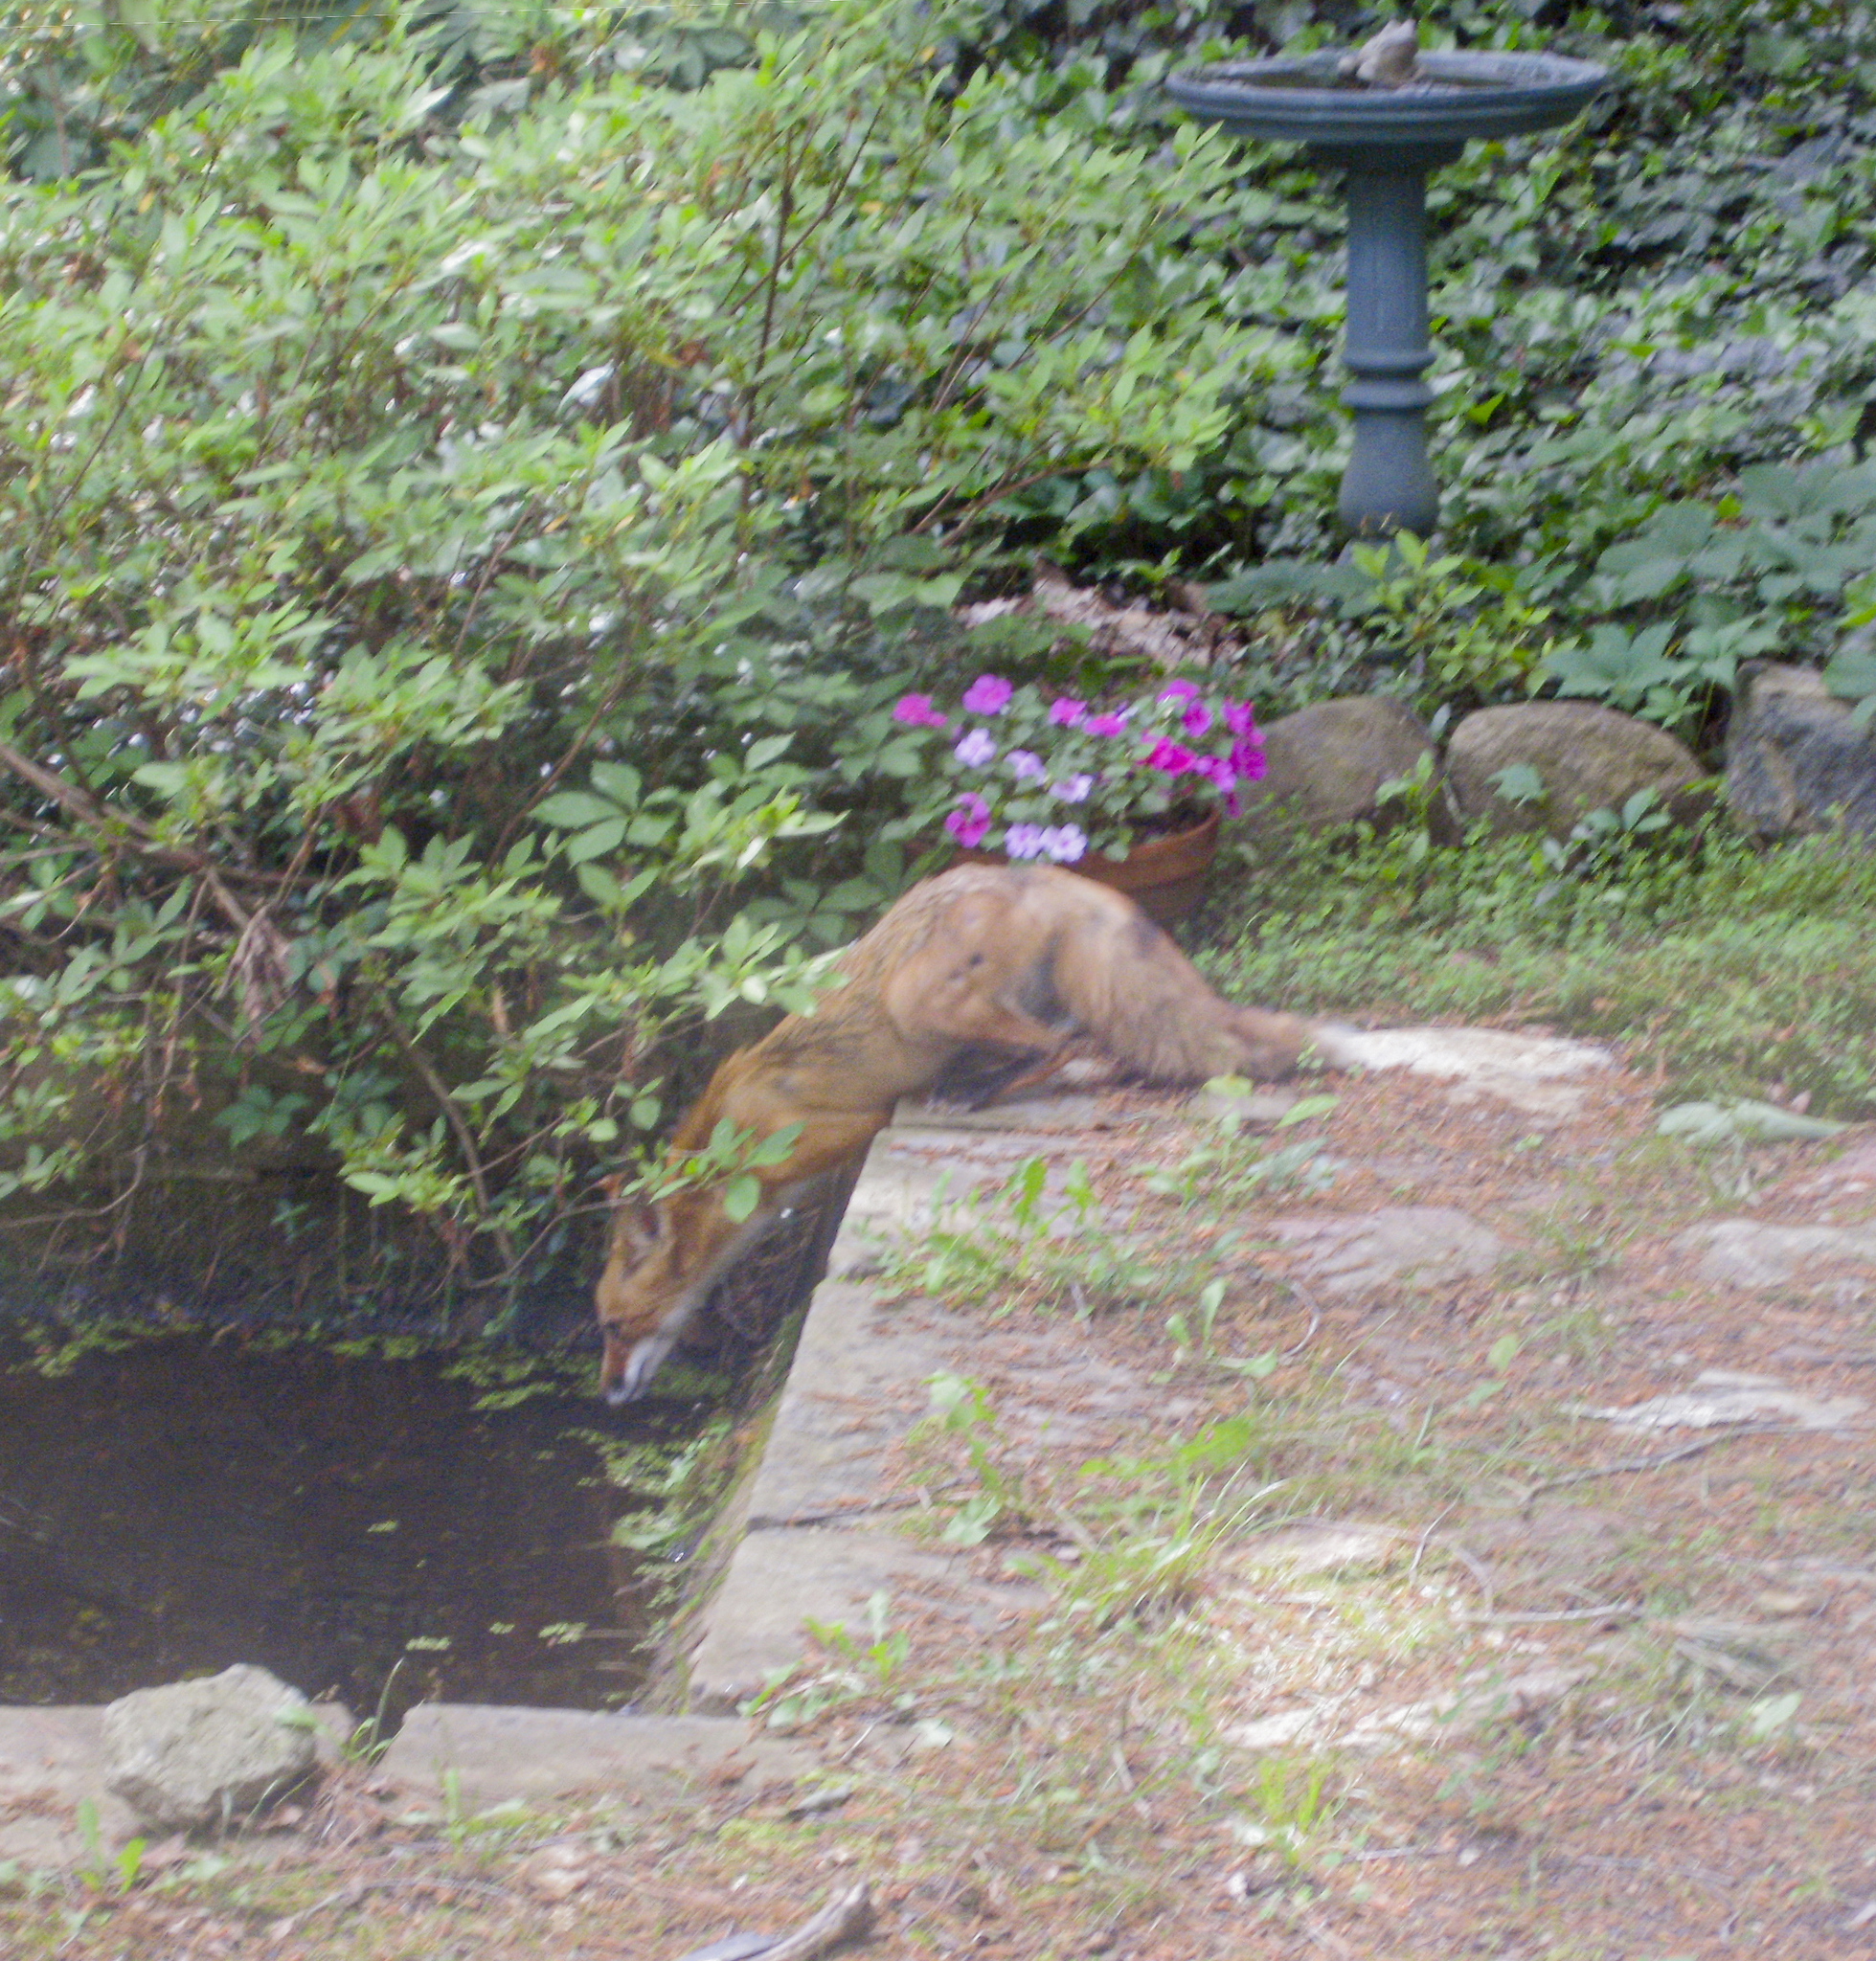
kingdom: Animalia
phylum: Chordata
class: Mammalia
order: Carnivora
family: Canidae
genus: Vulpes
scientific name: Vulpes vulpes
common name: Red fox
